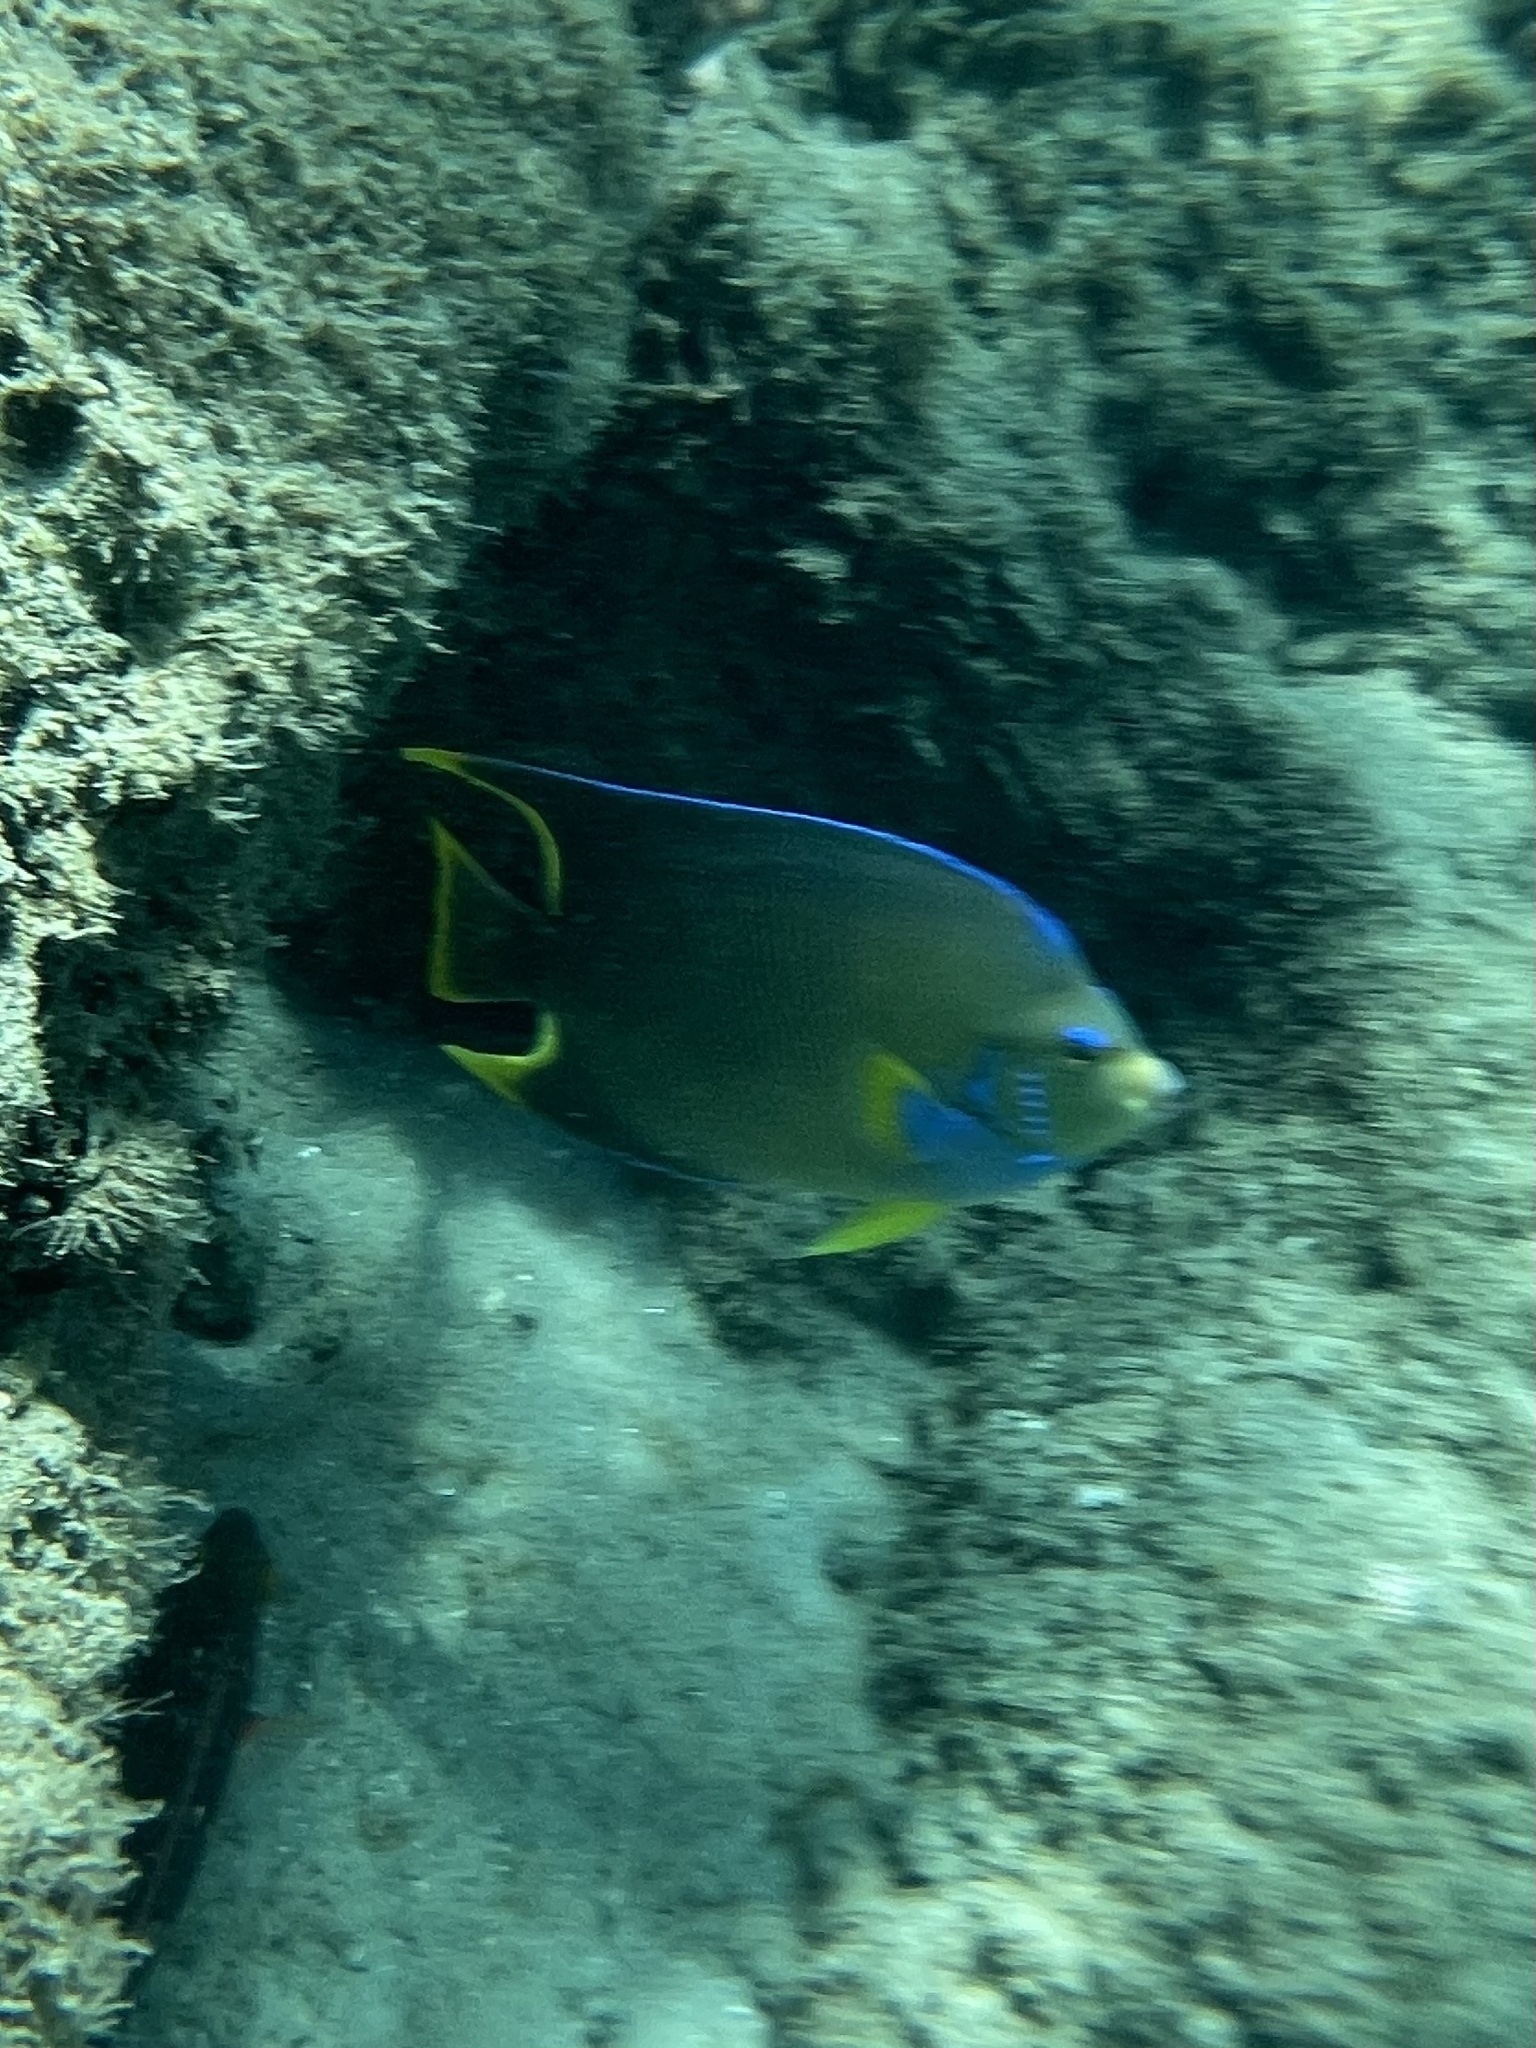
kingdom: Animalia
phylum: Chordata
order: Perciformes
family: Pomacanthidae
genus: Holacanthus
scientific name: Holacanthus bermudensis
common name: Blue angelfish
